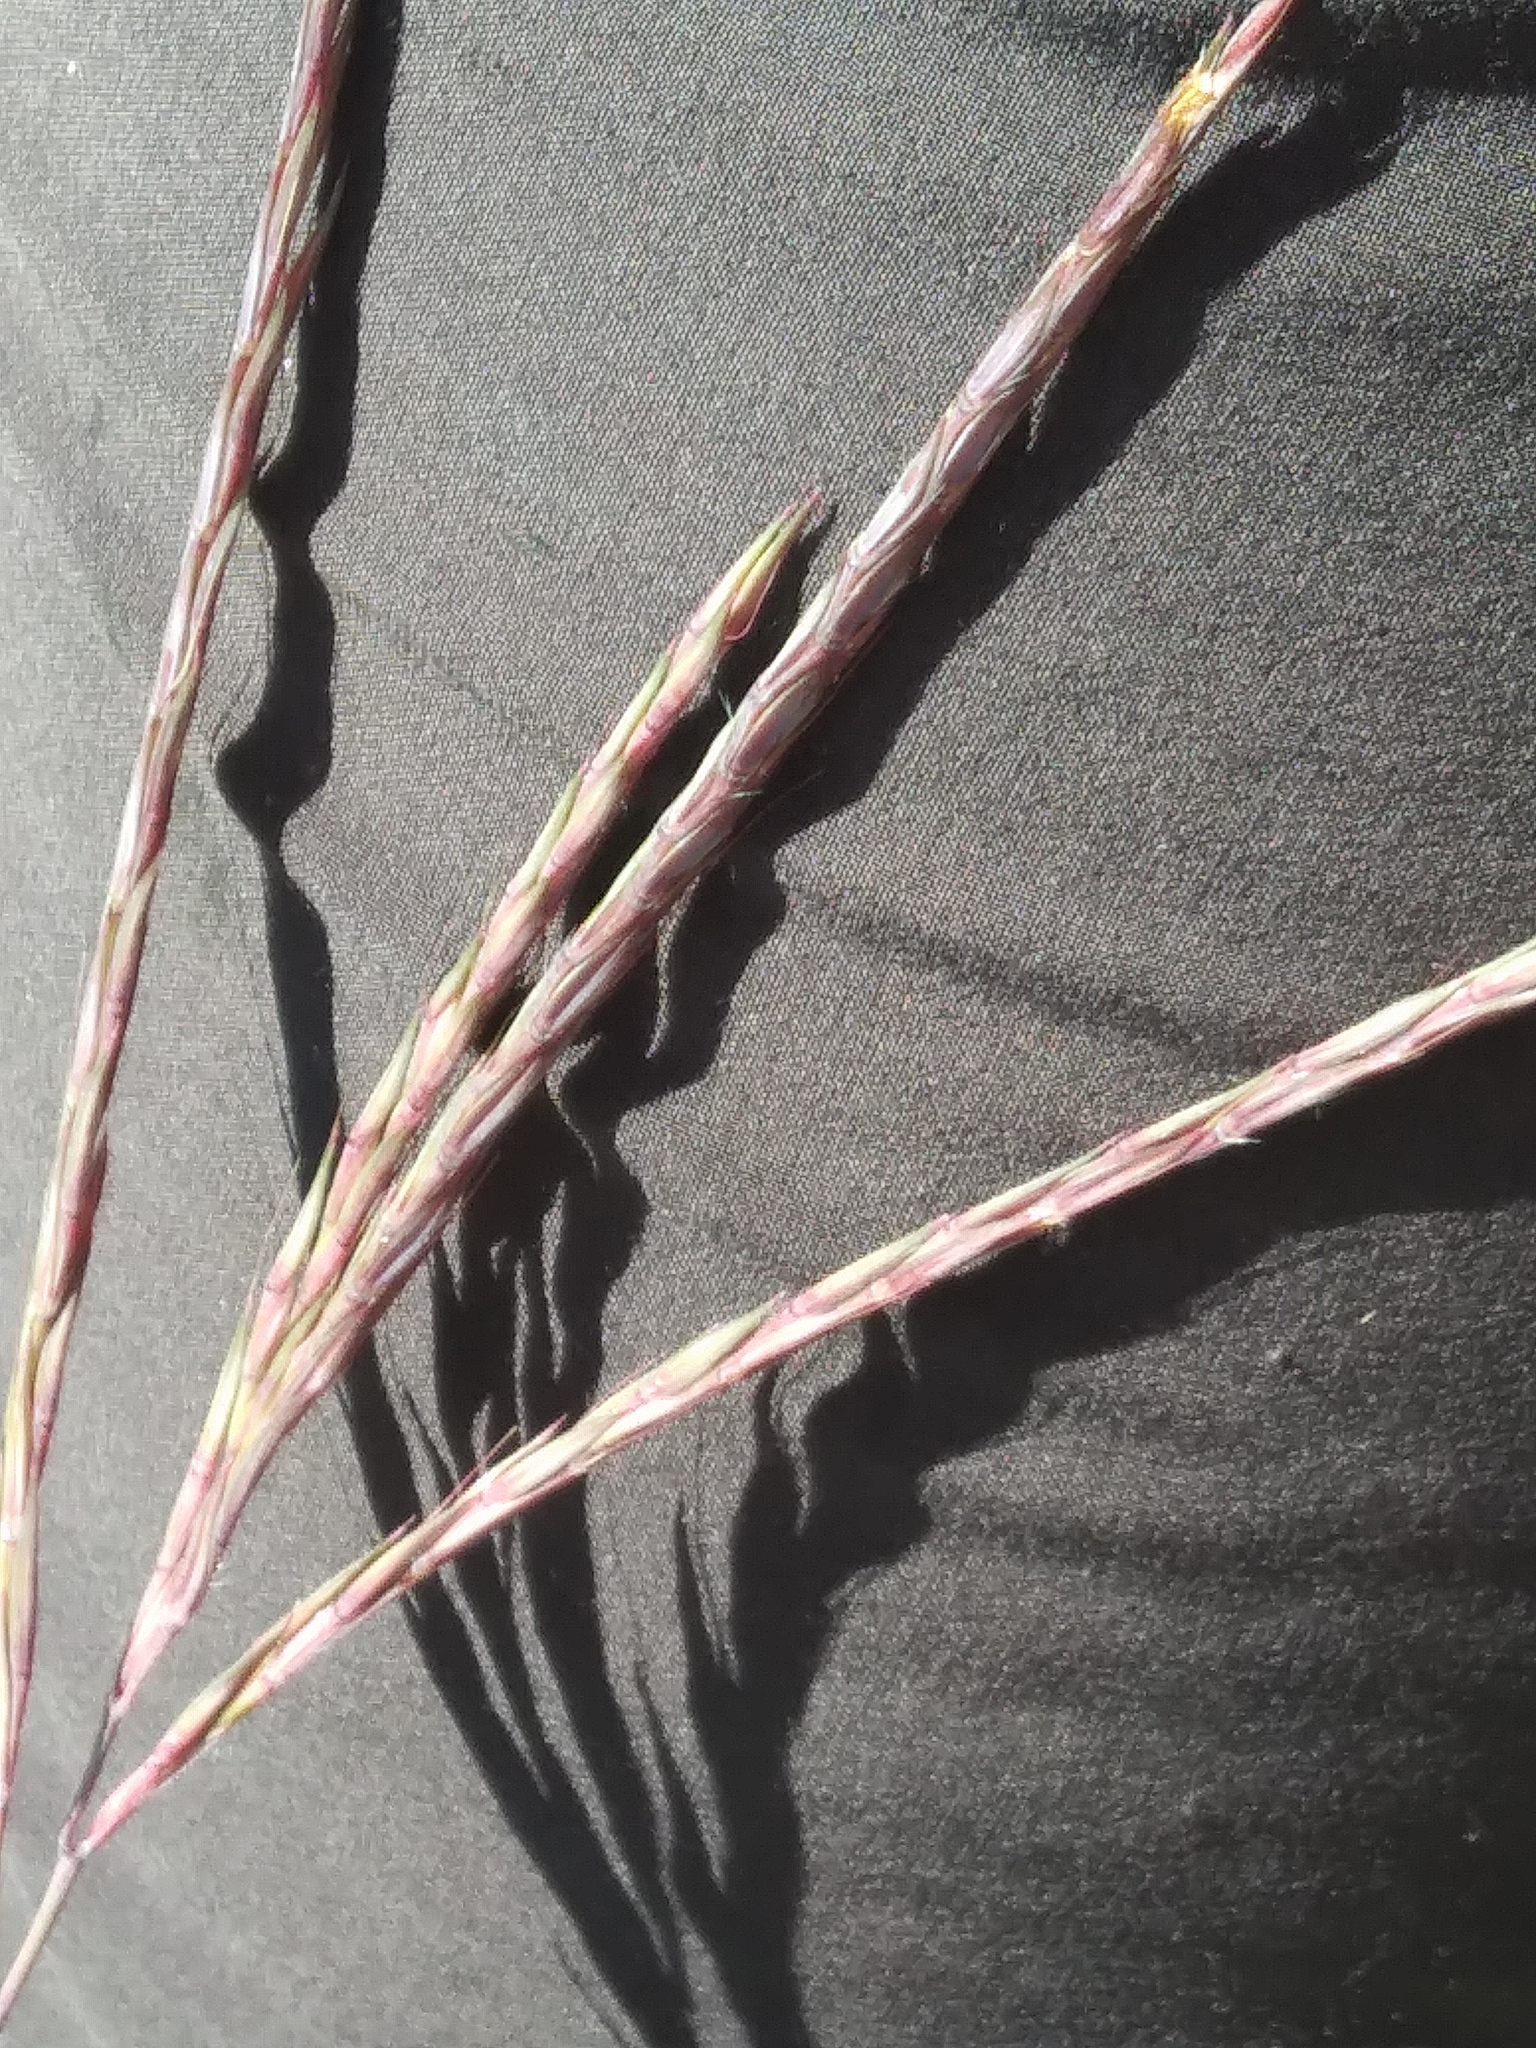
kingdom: Plantae
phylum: Tracheophyta
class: Liliopsida
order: Poales
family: Poaceae
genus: Andropogon
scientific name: Andropogon gerardi
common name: Big bluestem
